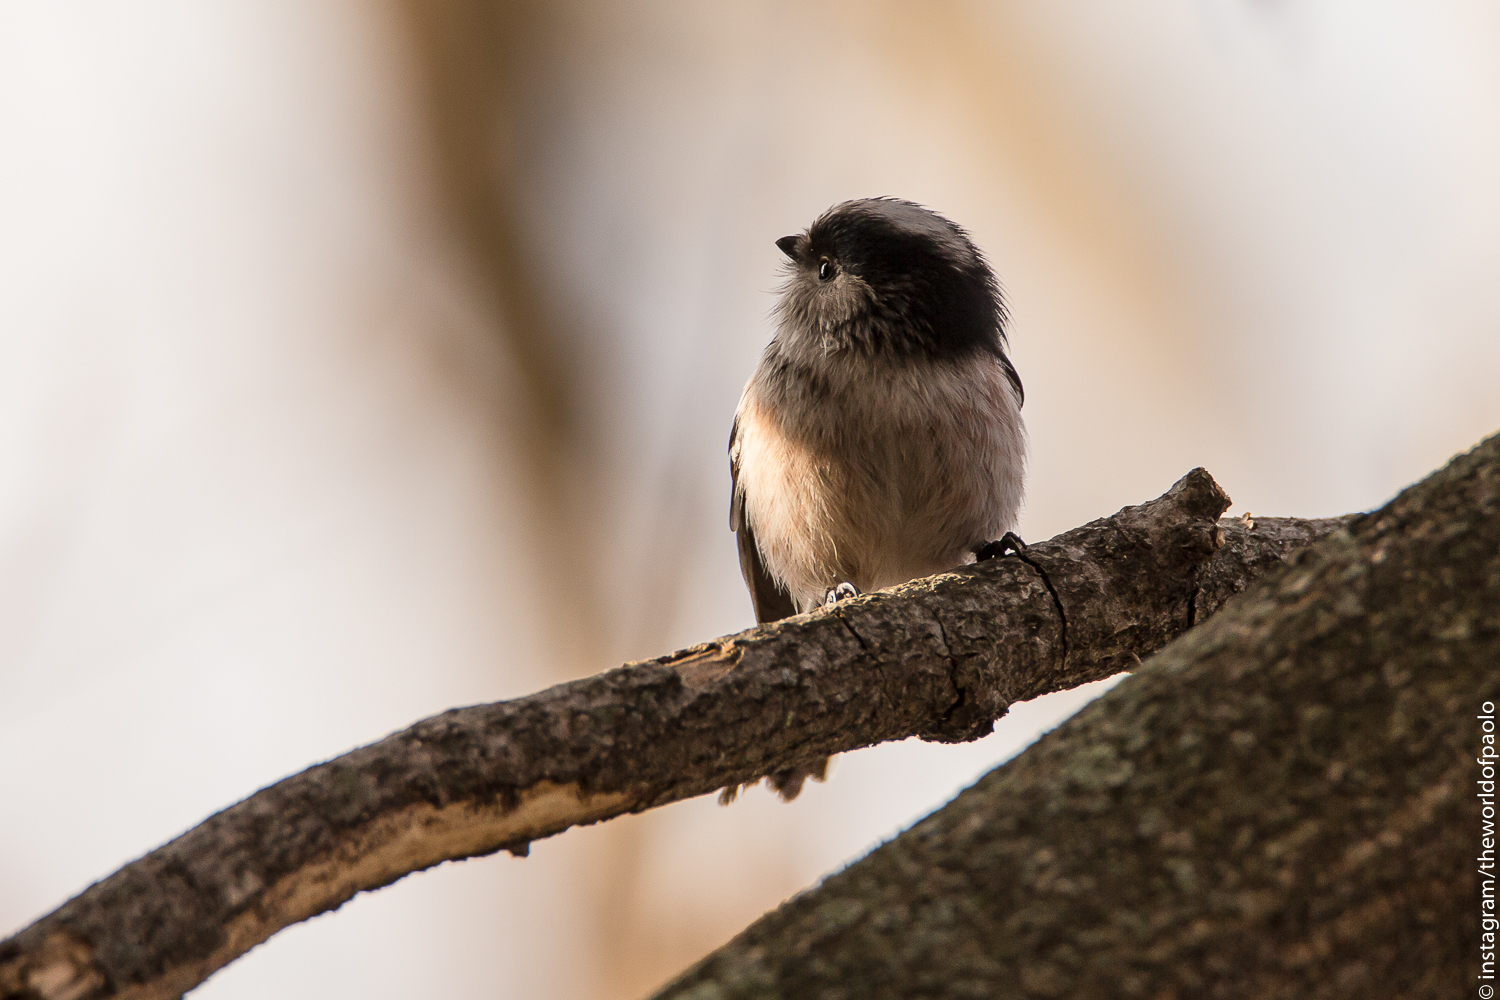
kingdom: Animalia
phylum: Chordata
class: Aves
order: Passeriformes
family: Aegithalidae
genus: Aegithalos
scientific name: Aegithalos caudatus
